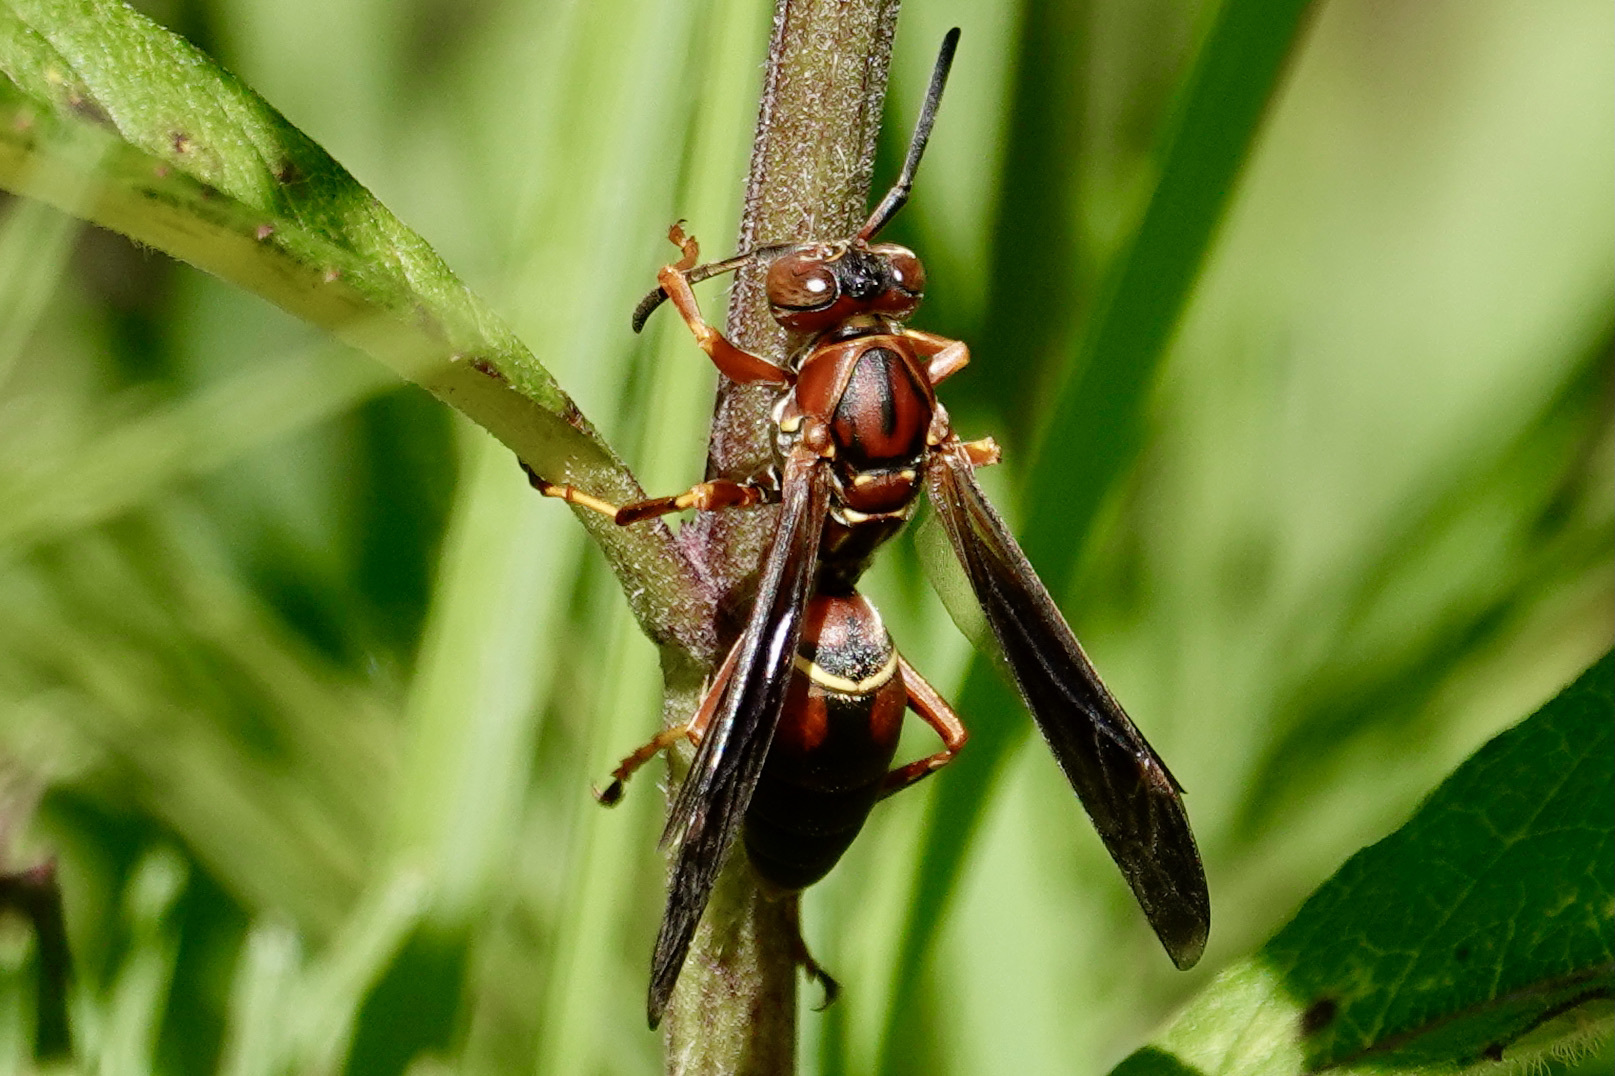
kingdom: Animalia
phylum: Arthropoda
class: Insecta
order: Hymenoptera
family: Eumenidae
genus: Polistes
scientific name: Polistes fuscatus
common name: Dark paper wasp
